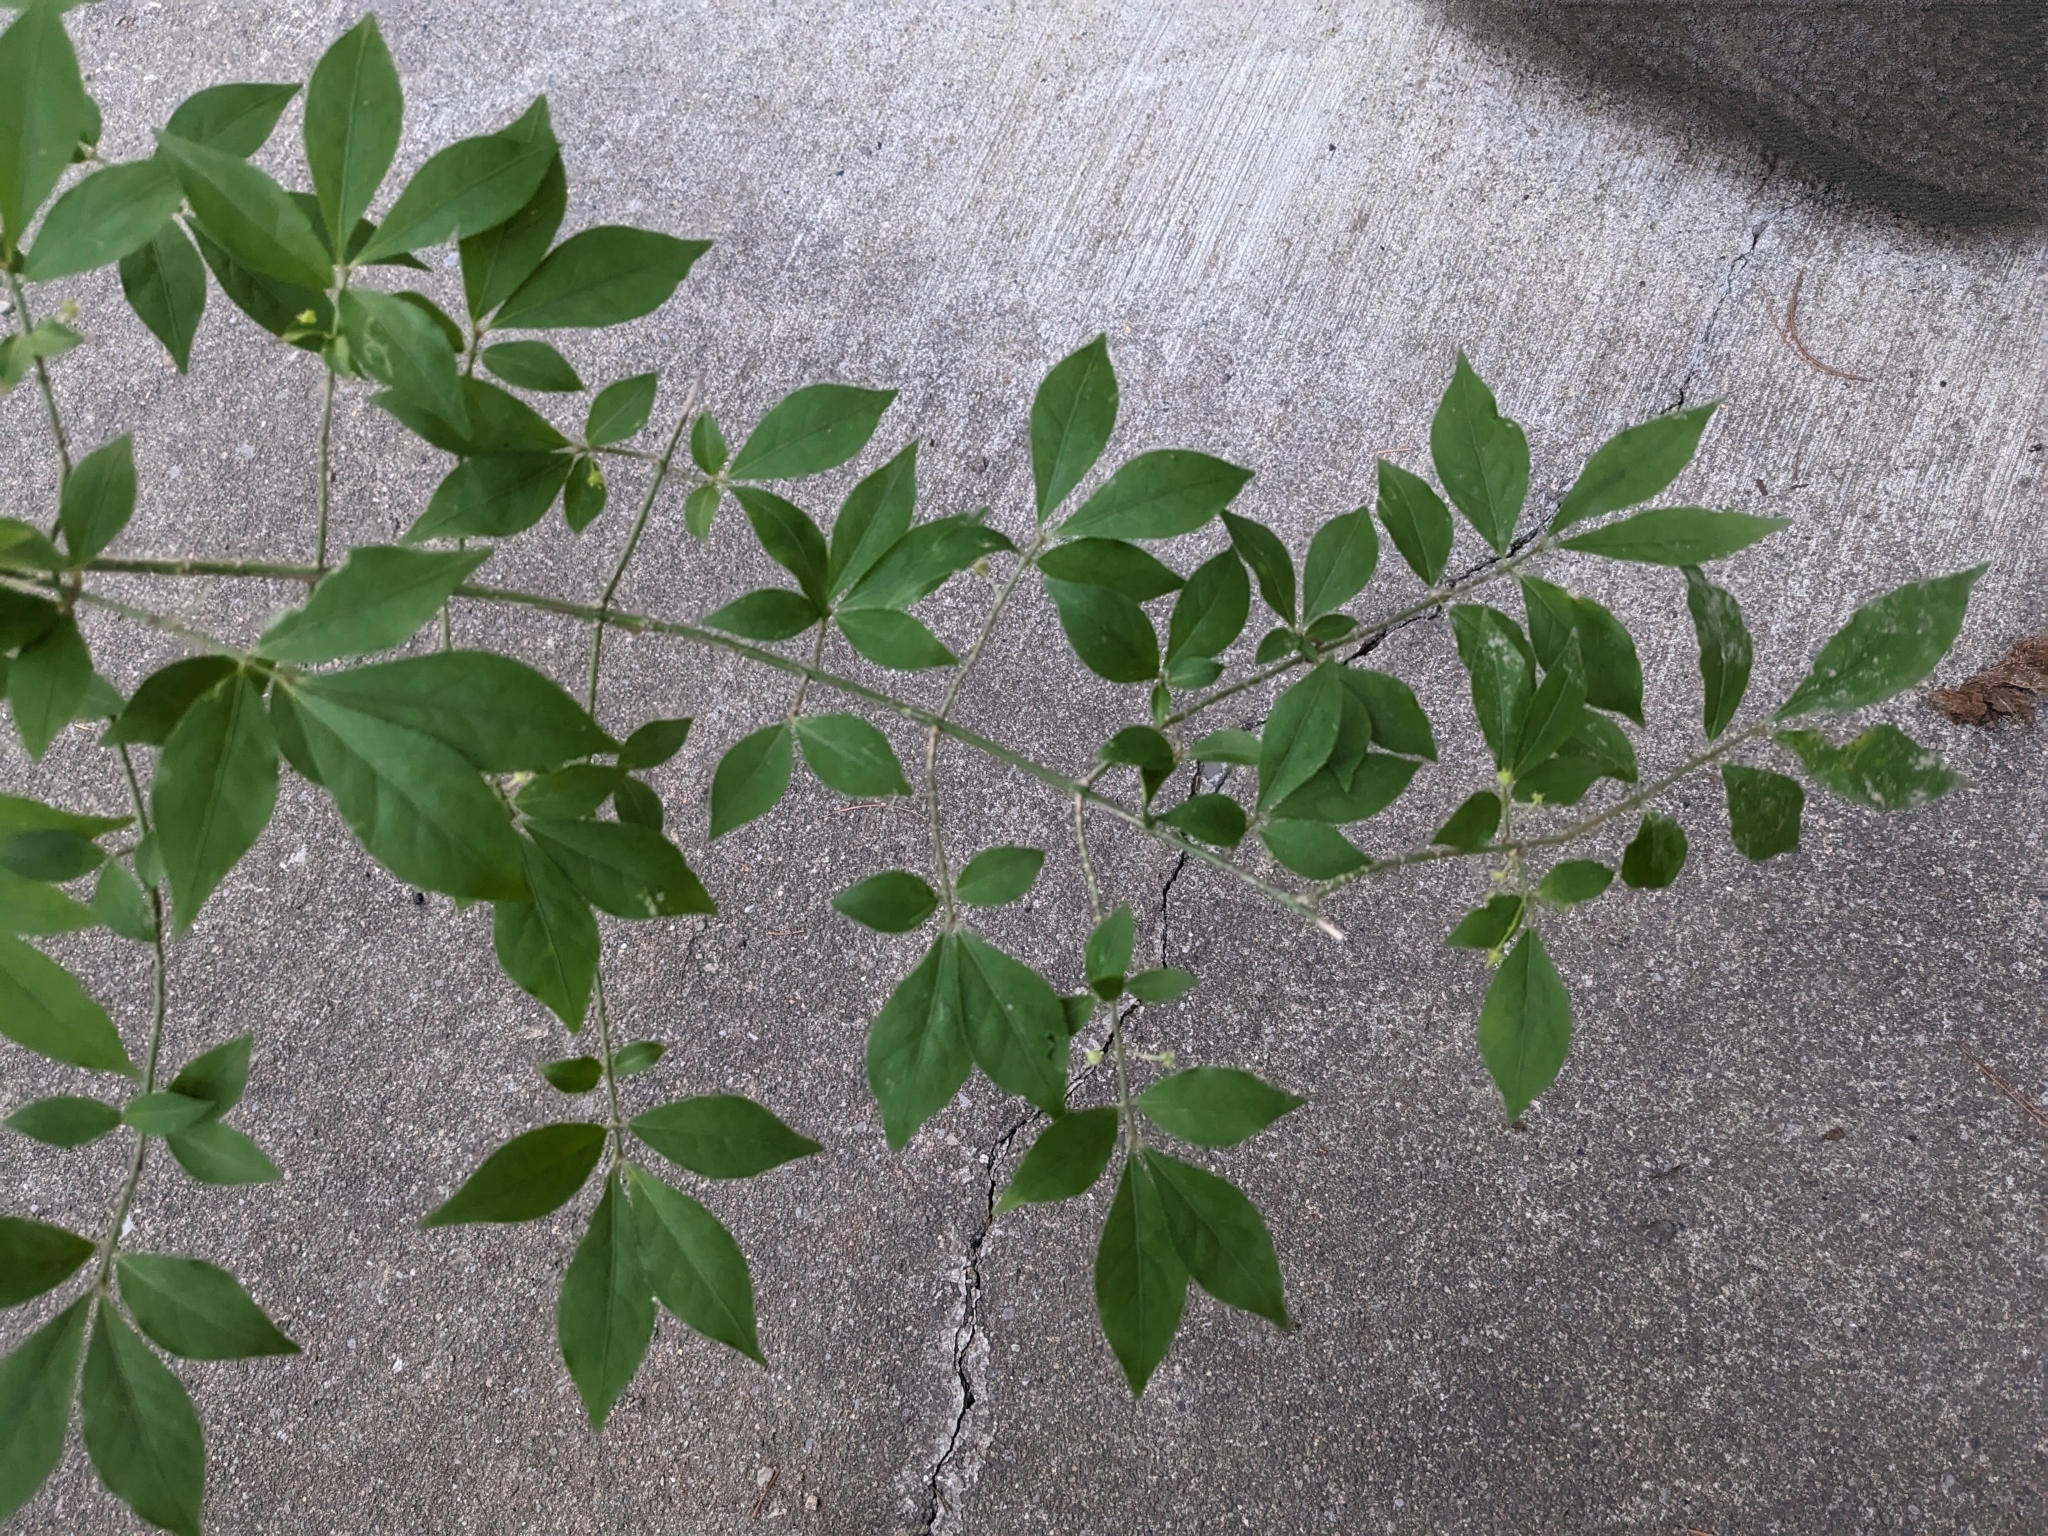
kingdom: Plantae
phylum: Tracheophyta
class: Magnoliopsida
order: Celastrales
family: Celastraceae
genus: Euonymus
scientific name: Euonymus alatus
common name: Winged euonymus
